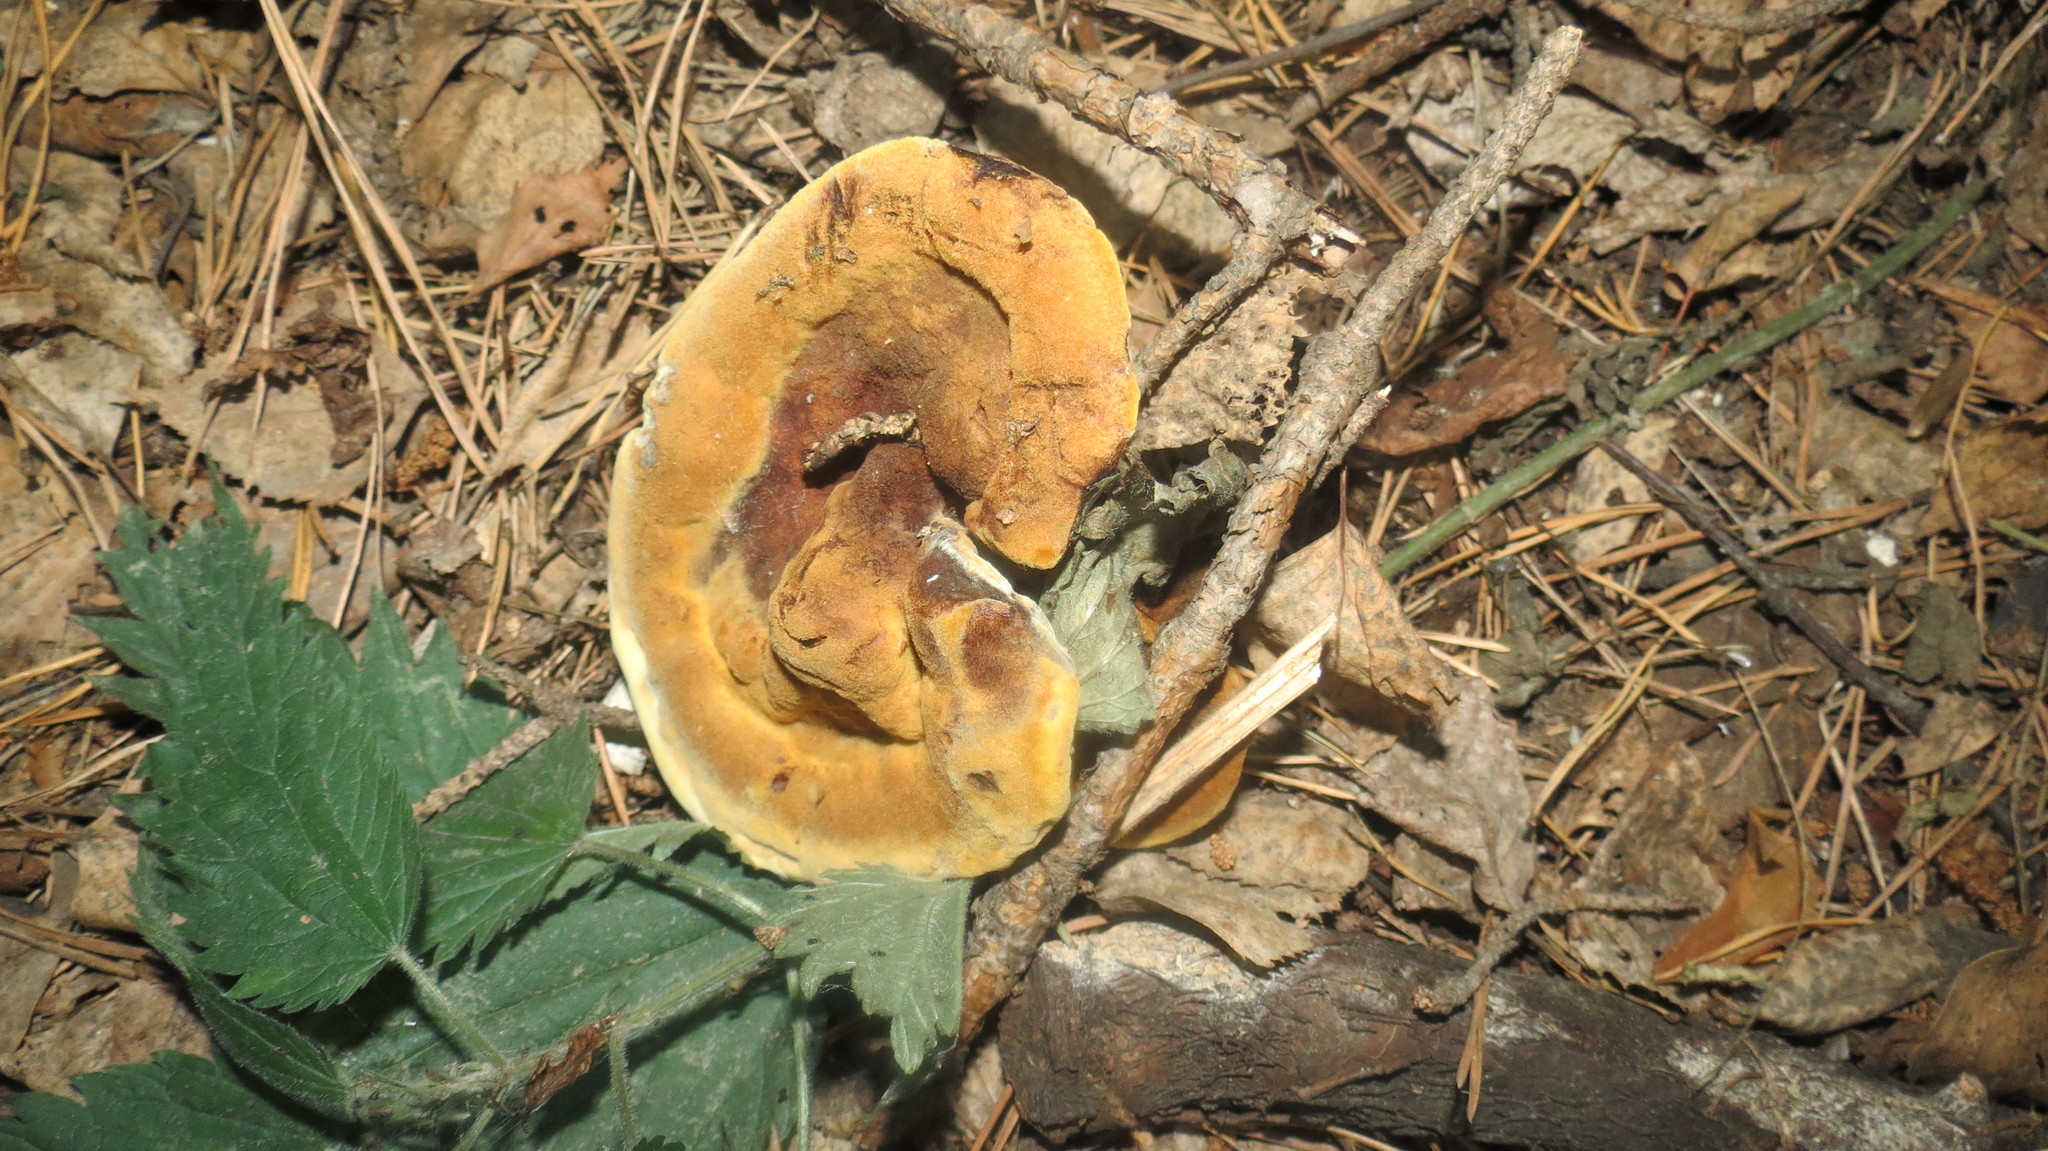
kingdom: Fungi
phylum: Basidiomycota
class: Agaricomycetes
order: Polyporales
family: Laetiporaceae
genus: Phaeolus
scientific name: Phaeolus schweinitzii
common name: Dyer's mazegill
